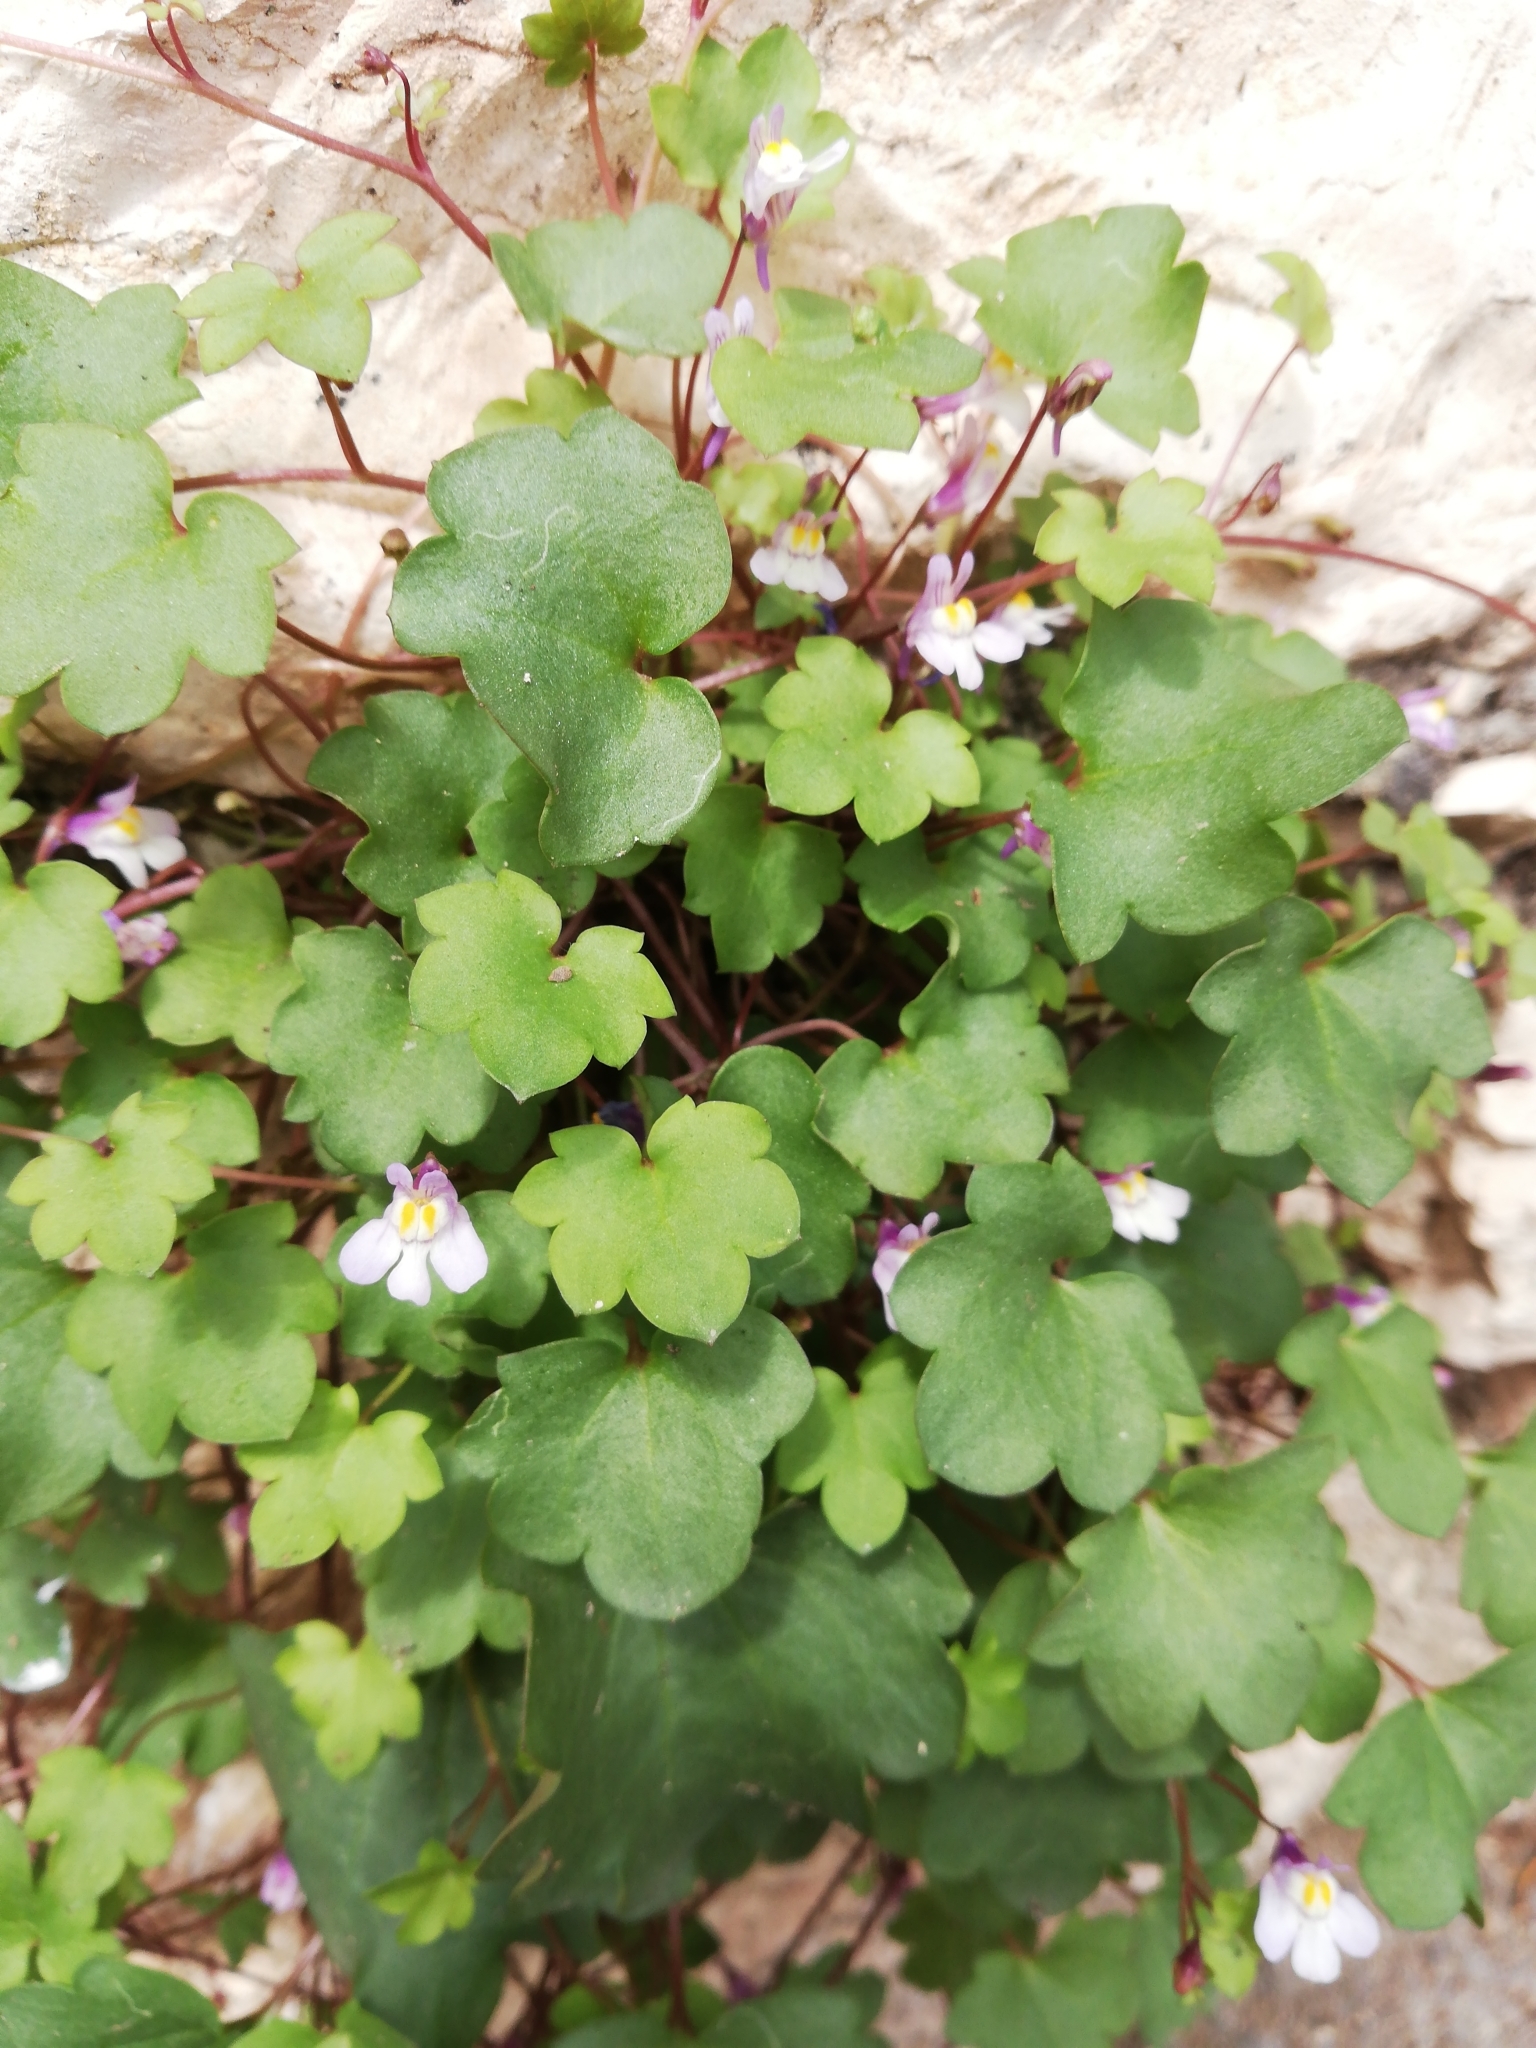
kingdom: Plantae
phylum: Tracheophyta
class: Magnoliopsida
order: Lamiales
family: Plantaginaceae
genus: Cymbalaria
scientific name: Cymbalaria muralis
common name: Ivy-leaved toadflax
